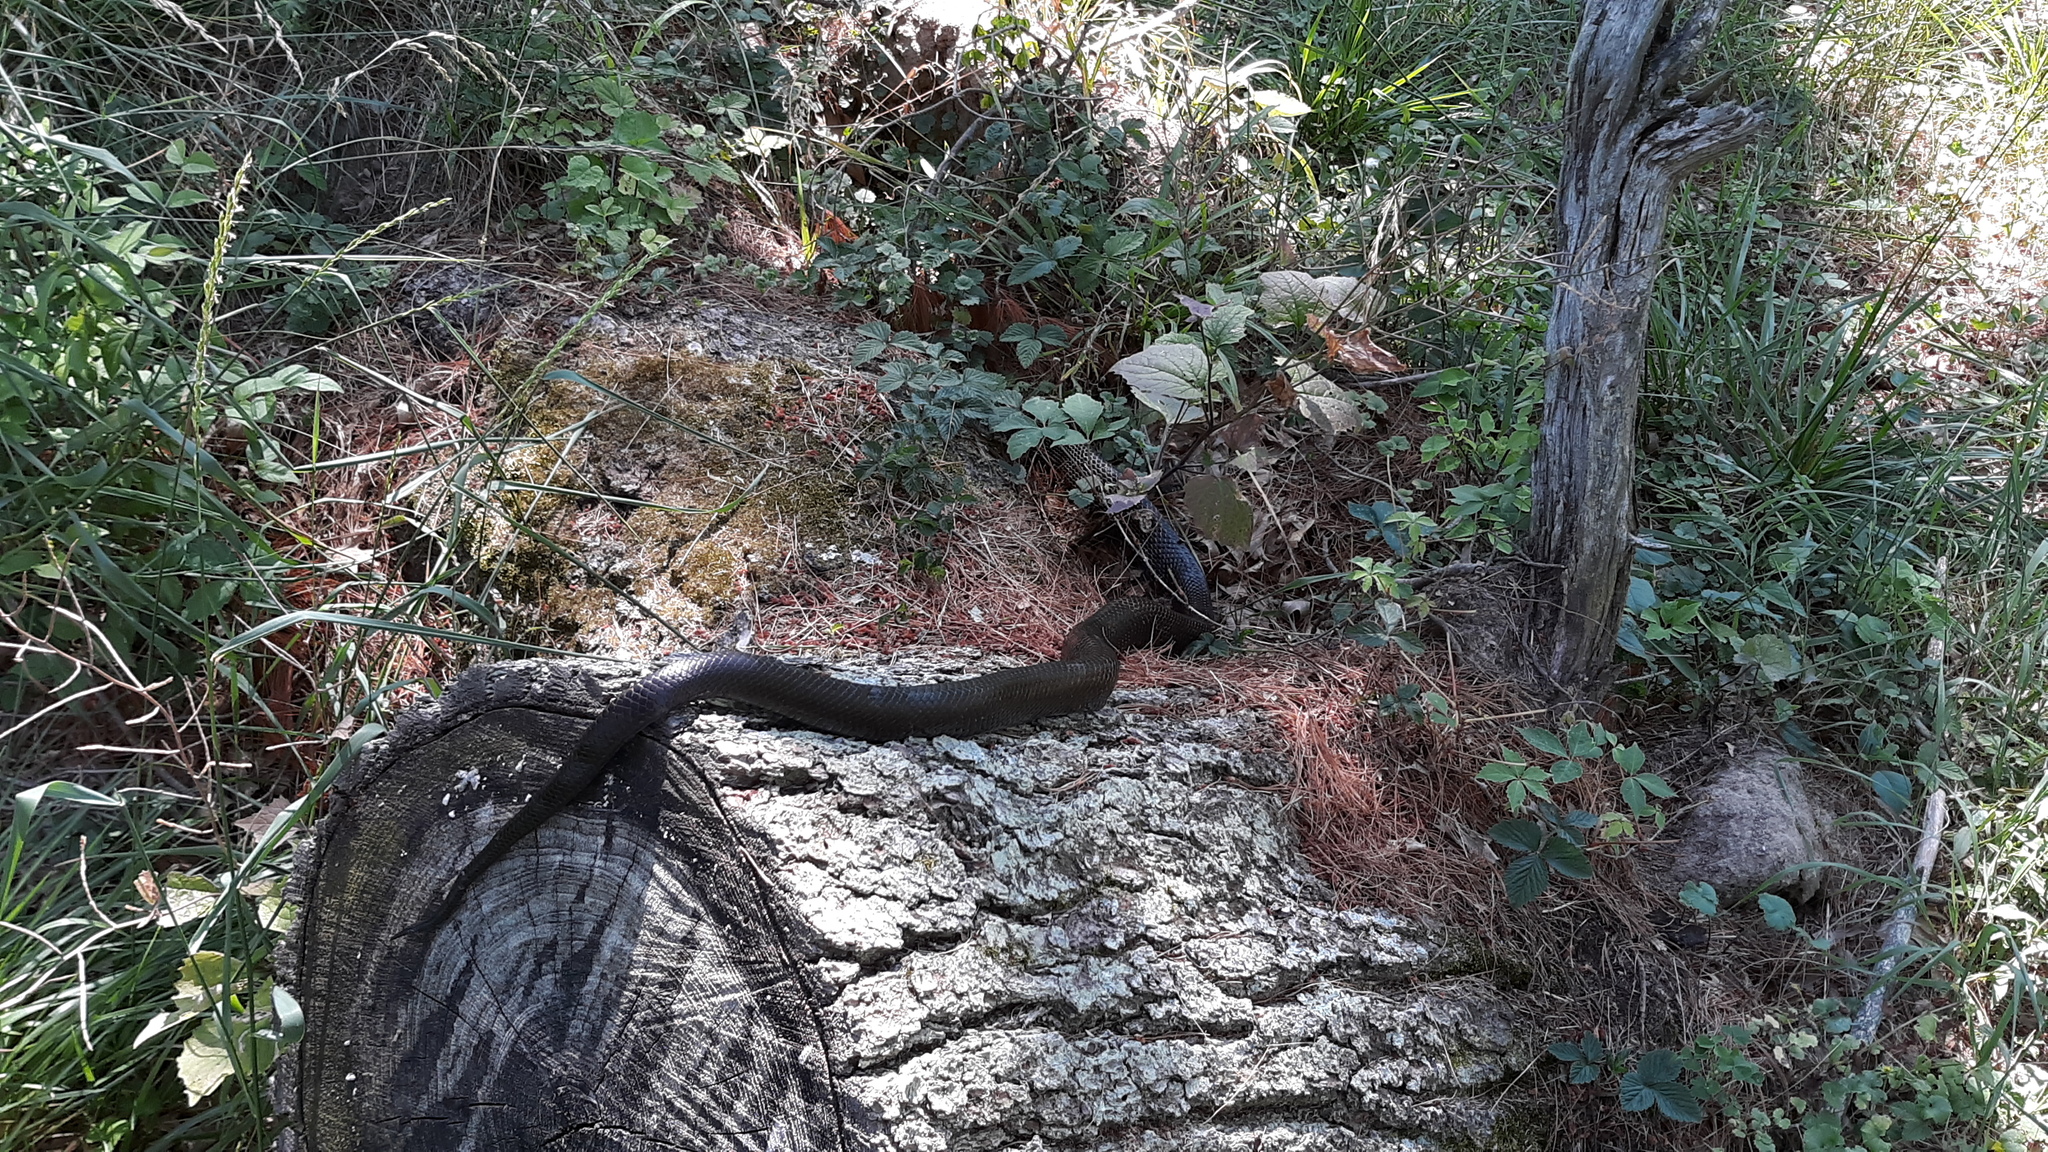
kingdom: Animalia
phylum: Chordata
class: Squamata
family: Colubridae
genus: Pantherophis
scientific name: Pantherophis spiloides
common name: Gray rat snake
